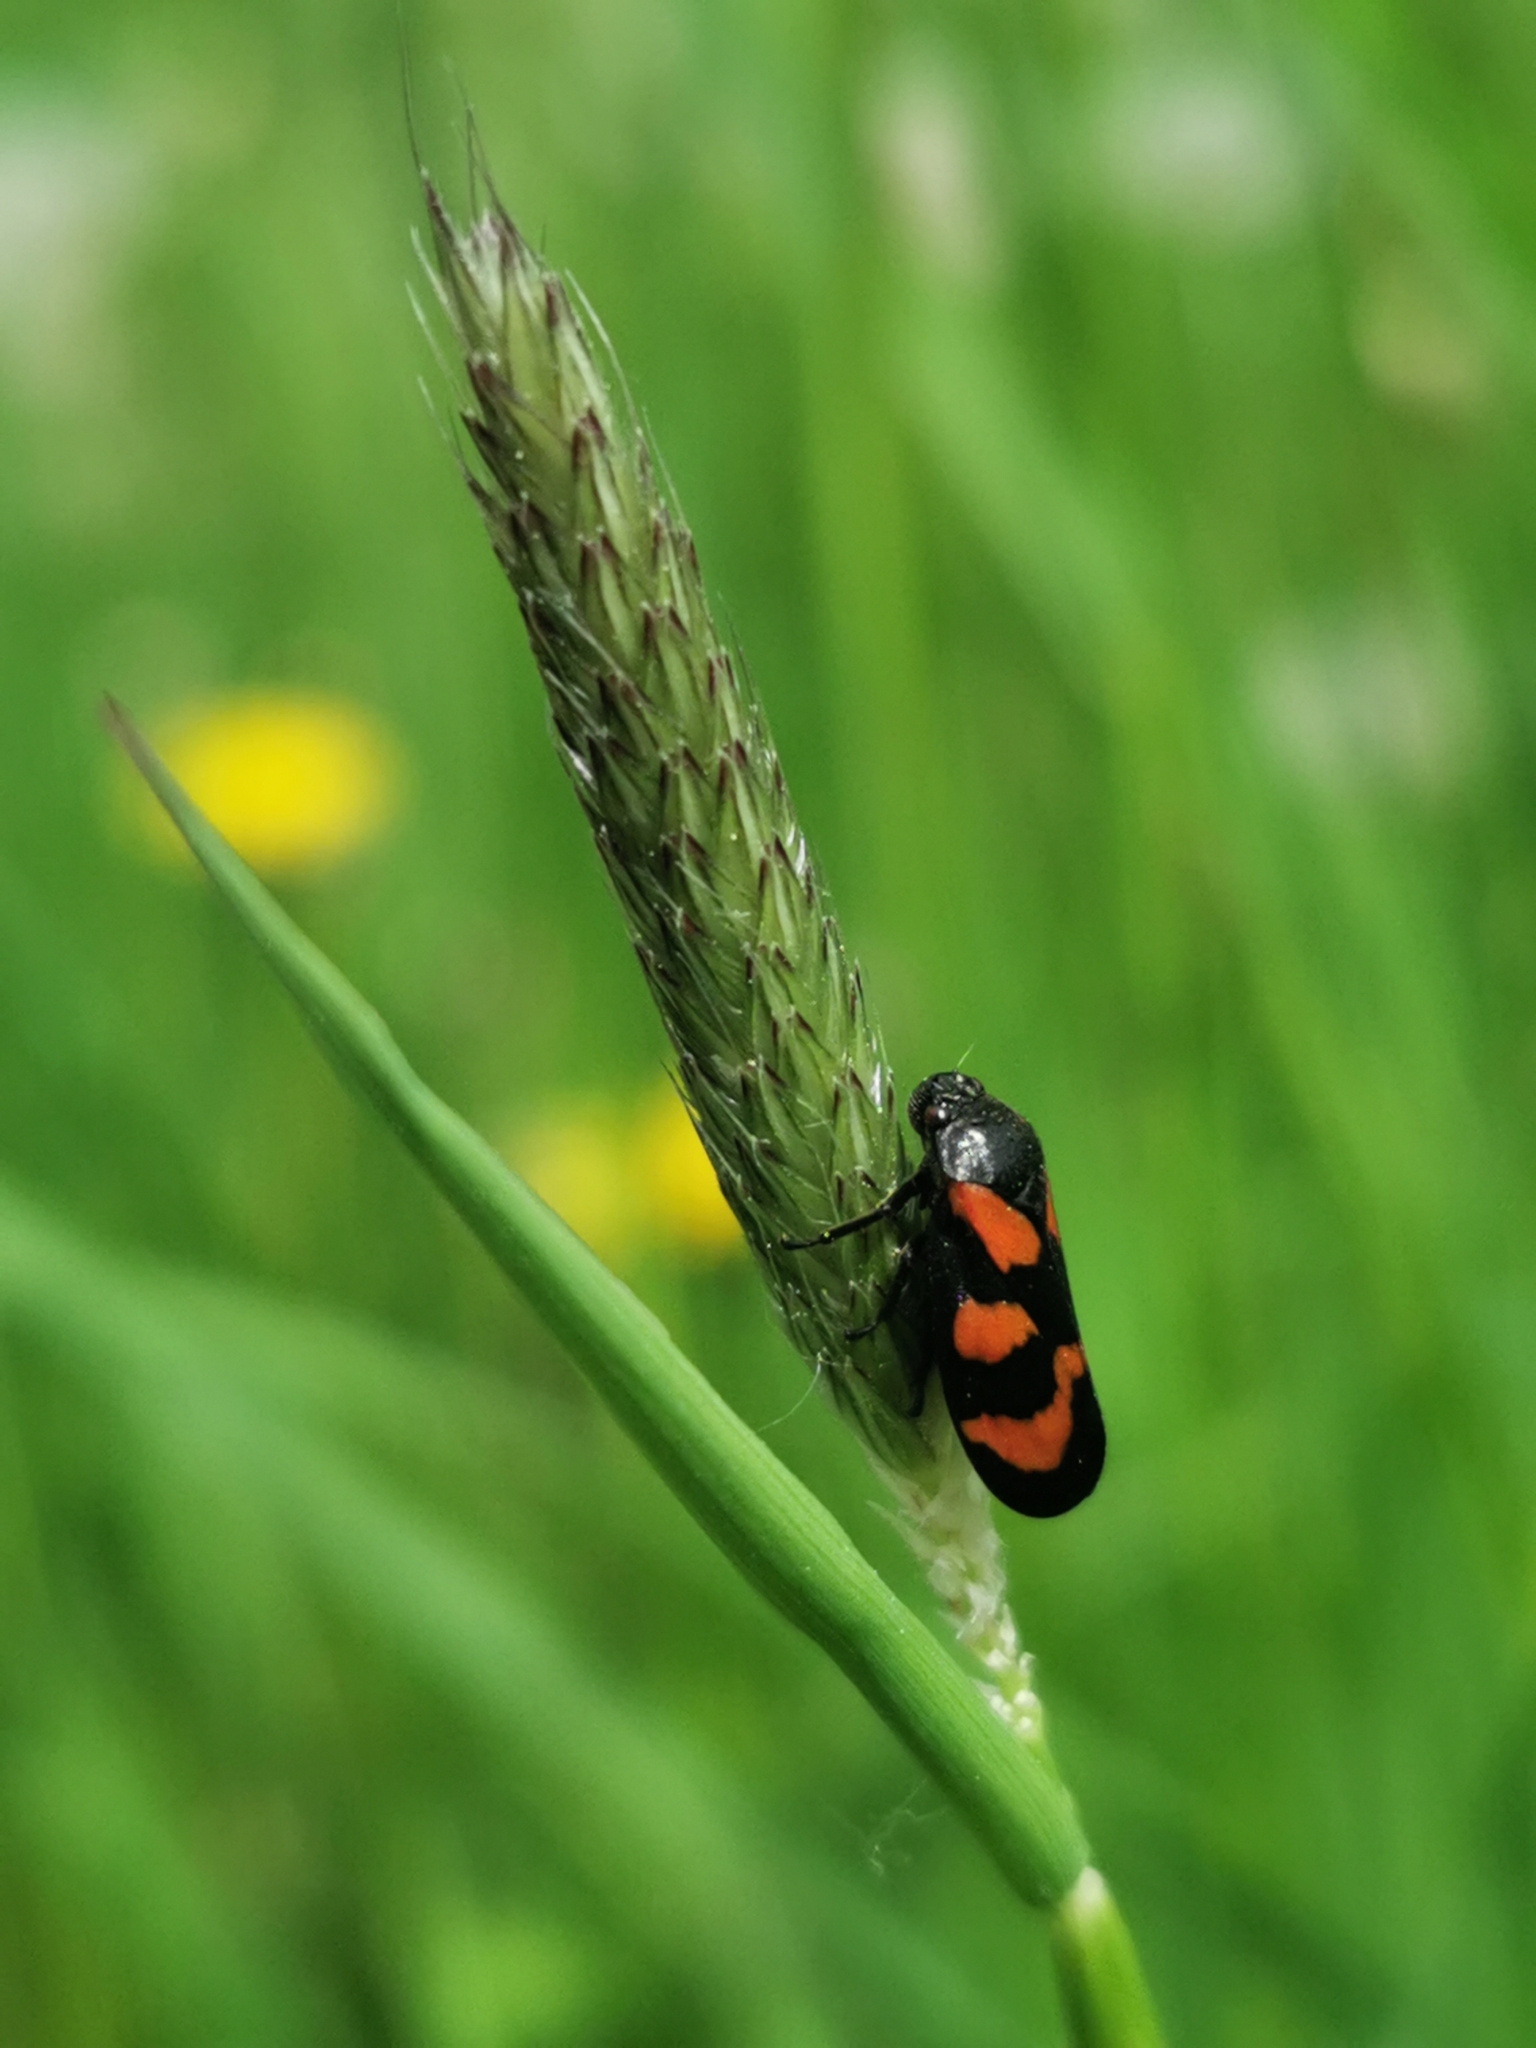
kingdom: Animalia
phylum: Arthropoda
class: Insecta
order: Hemiptera
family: Cercopidae
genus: Cercopis
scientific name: Cercopis vulnerata
